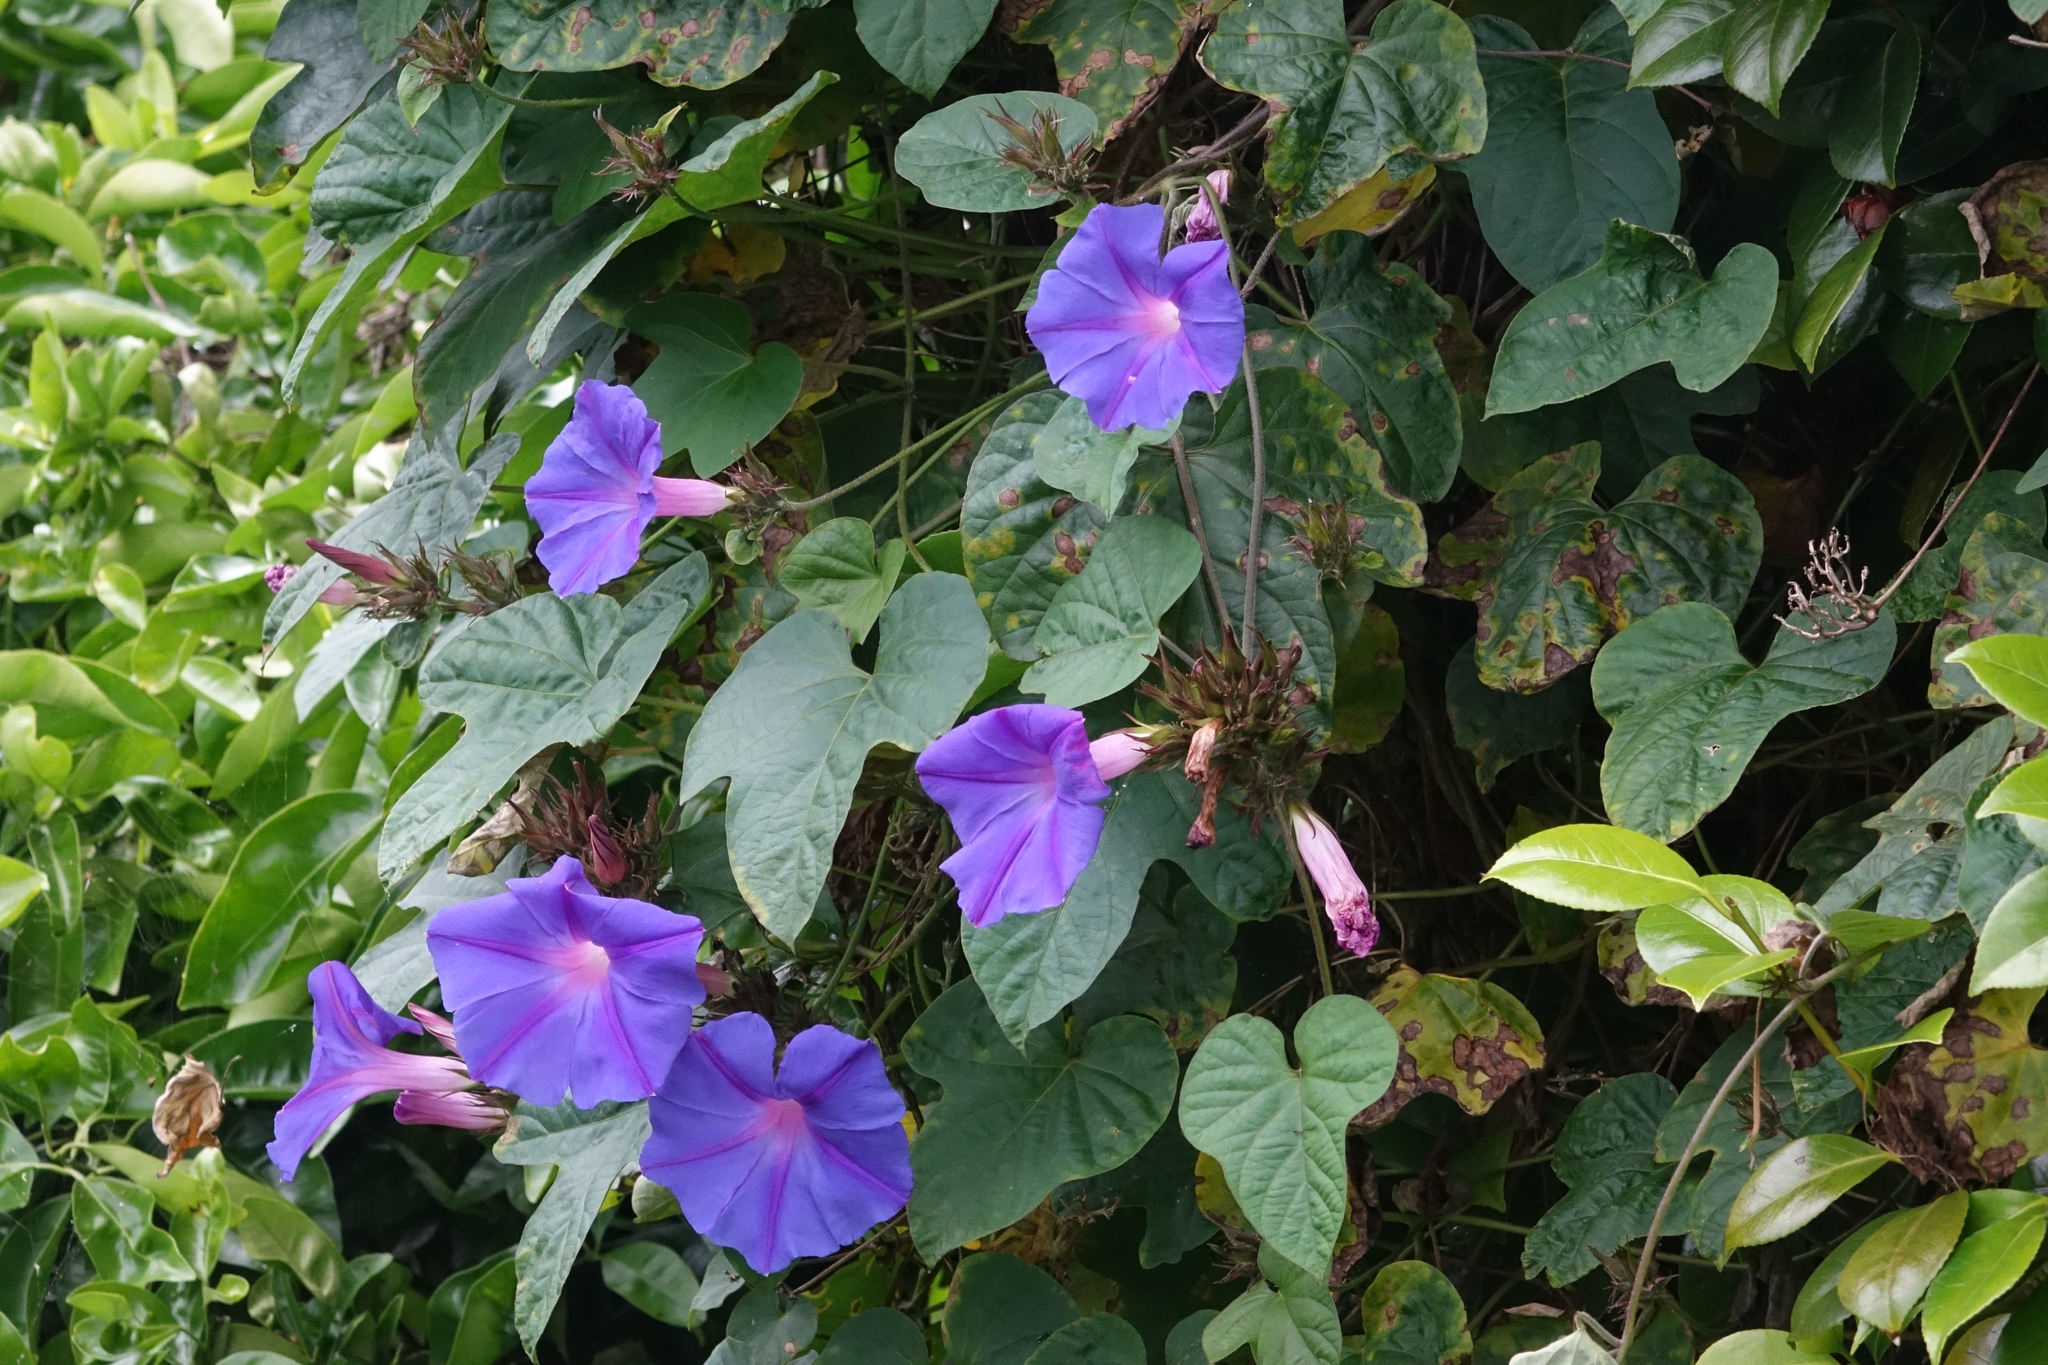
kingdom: Plantae
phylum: Tracheophyta
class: Magnoliopsida
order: Solanales
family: Convolvulaceae
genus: Ipomoea
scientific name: Ipomoea indica
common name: Blue dawnflower
